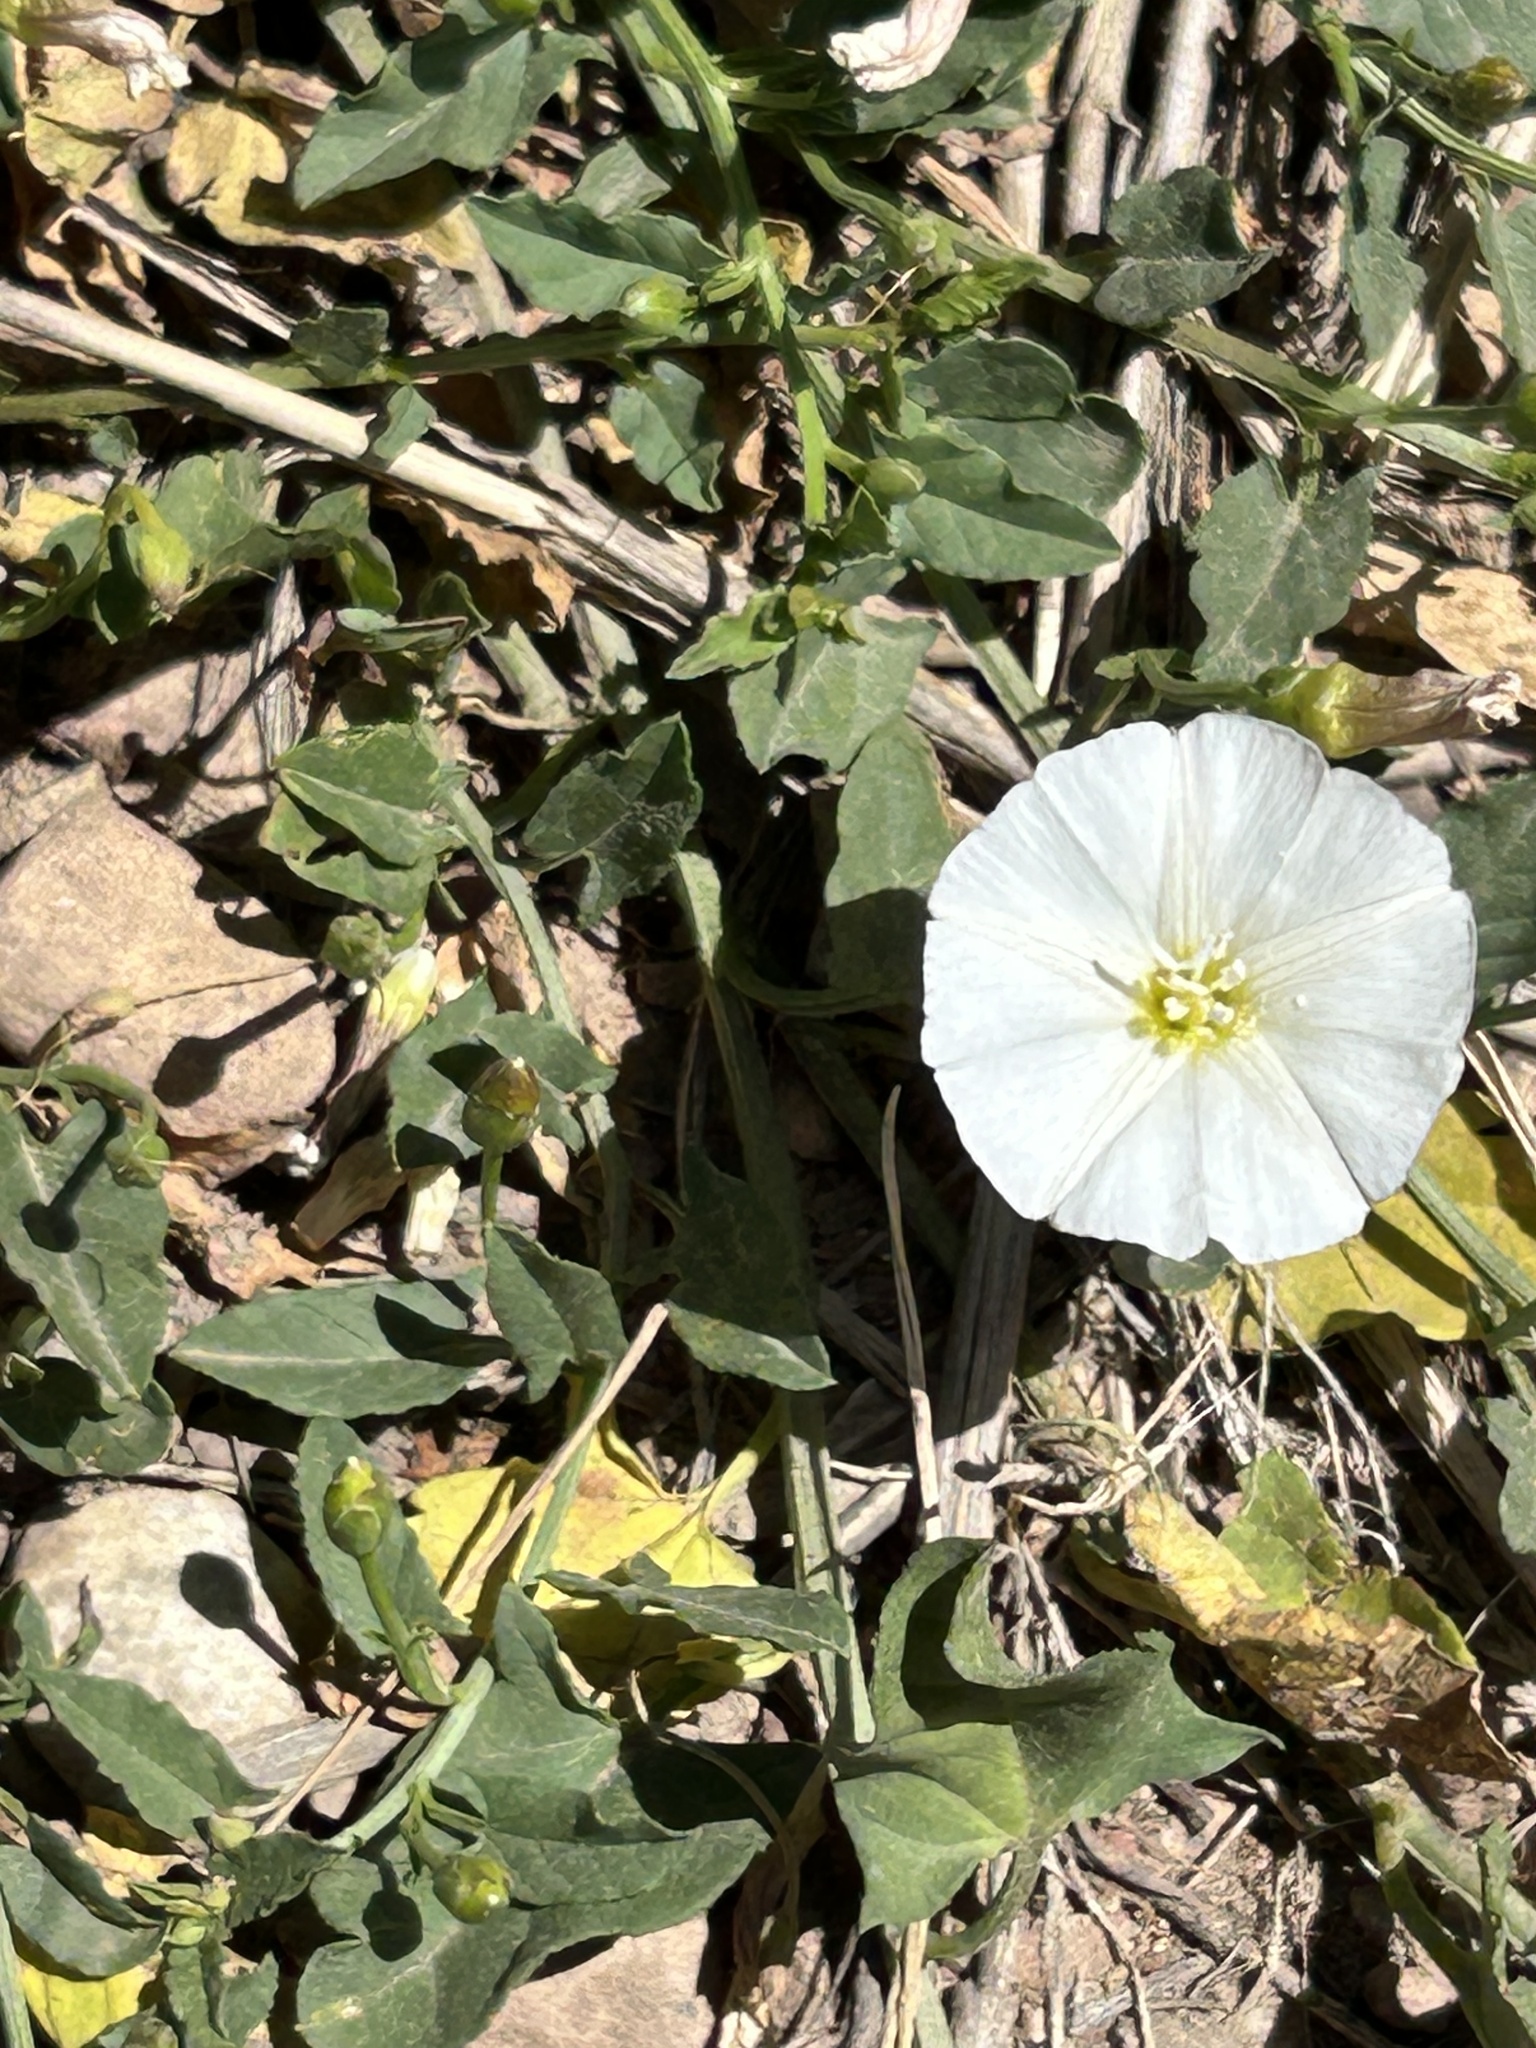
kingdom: Plantae
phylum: Tracheophyta
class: Magnoliopsida
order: Solanales
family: Convolvulaceae
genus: Convolvulus
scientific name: Convolvulus arvensis
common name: Field bindweed
